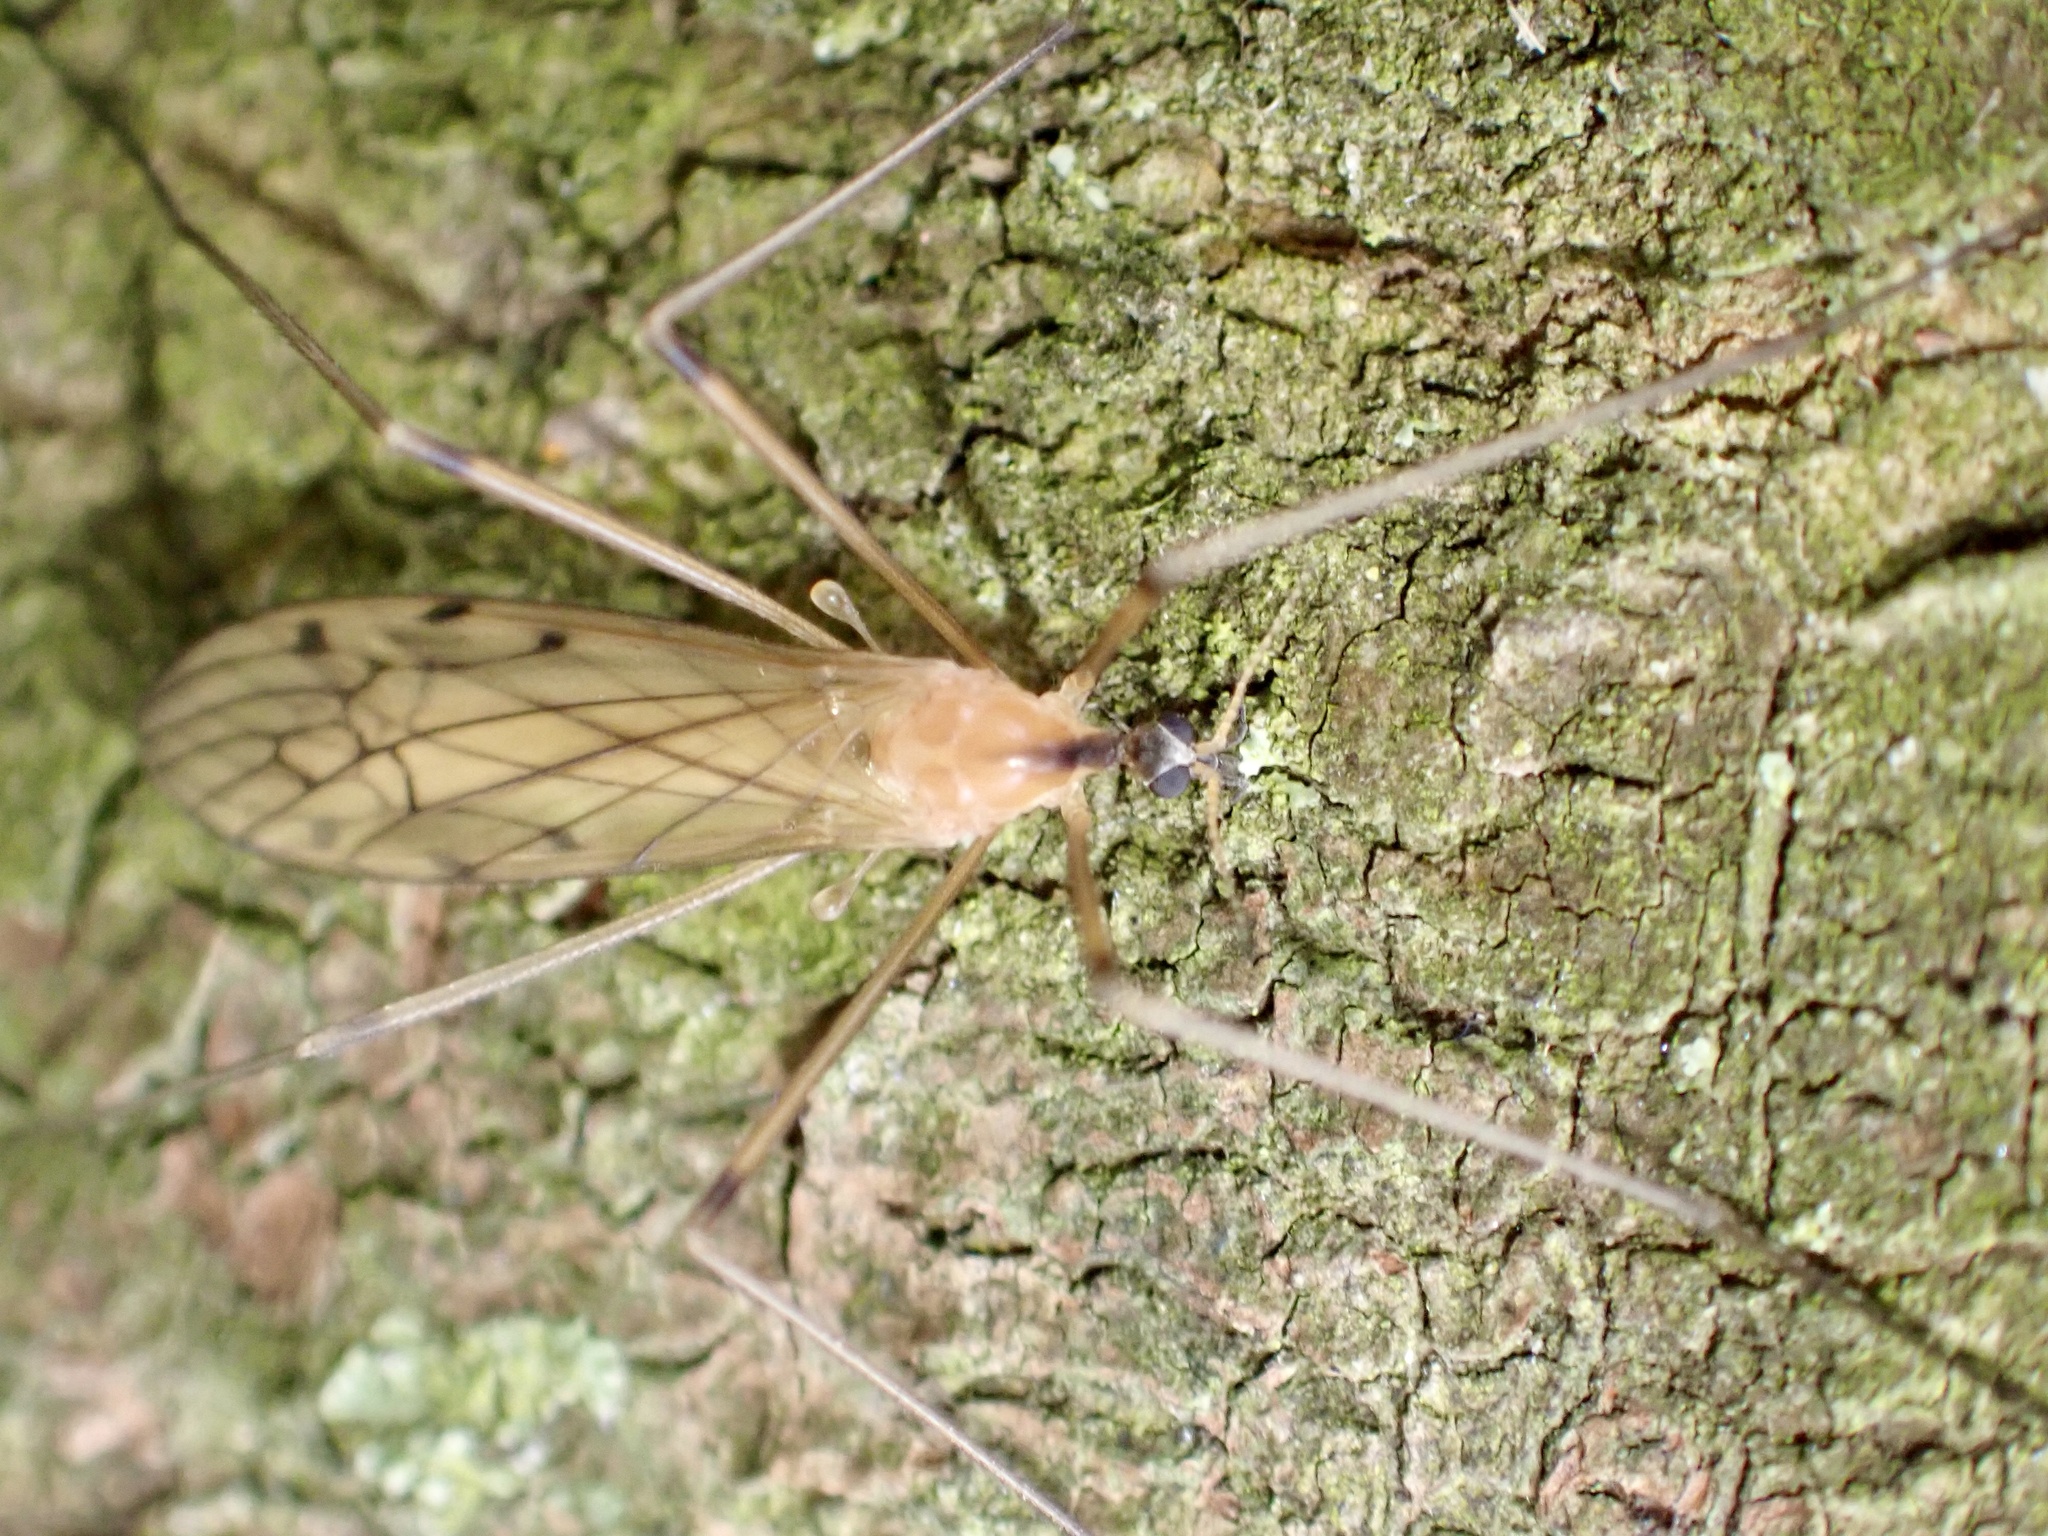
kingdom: Animalia
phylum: Arthropoda
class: Insecta
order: Diptera
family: Limoniidae
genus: Limonia
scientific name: Limonia nigropunctata
